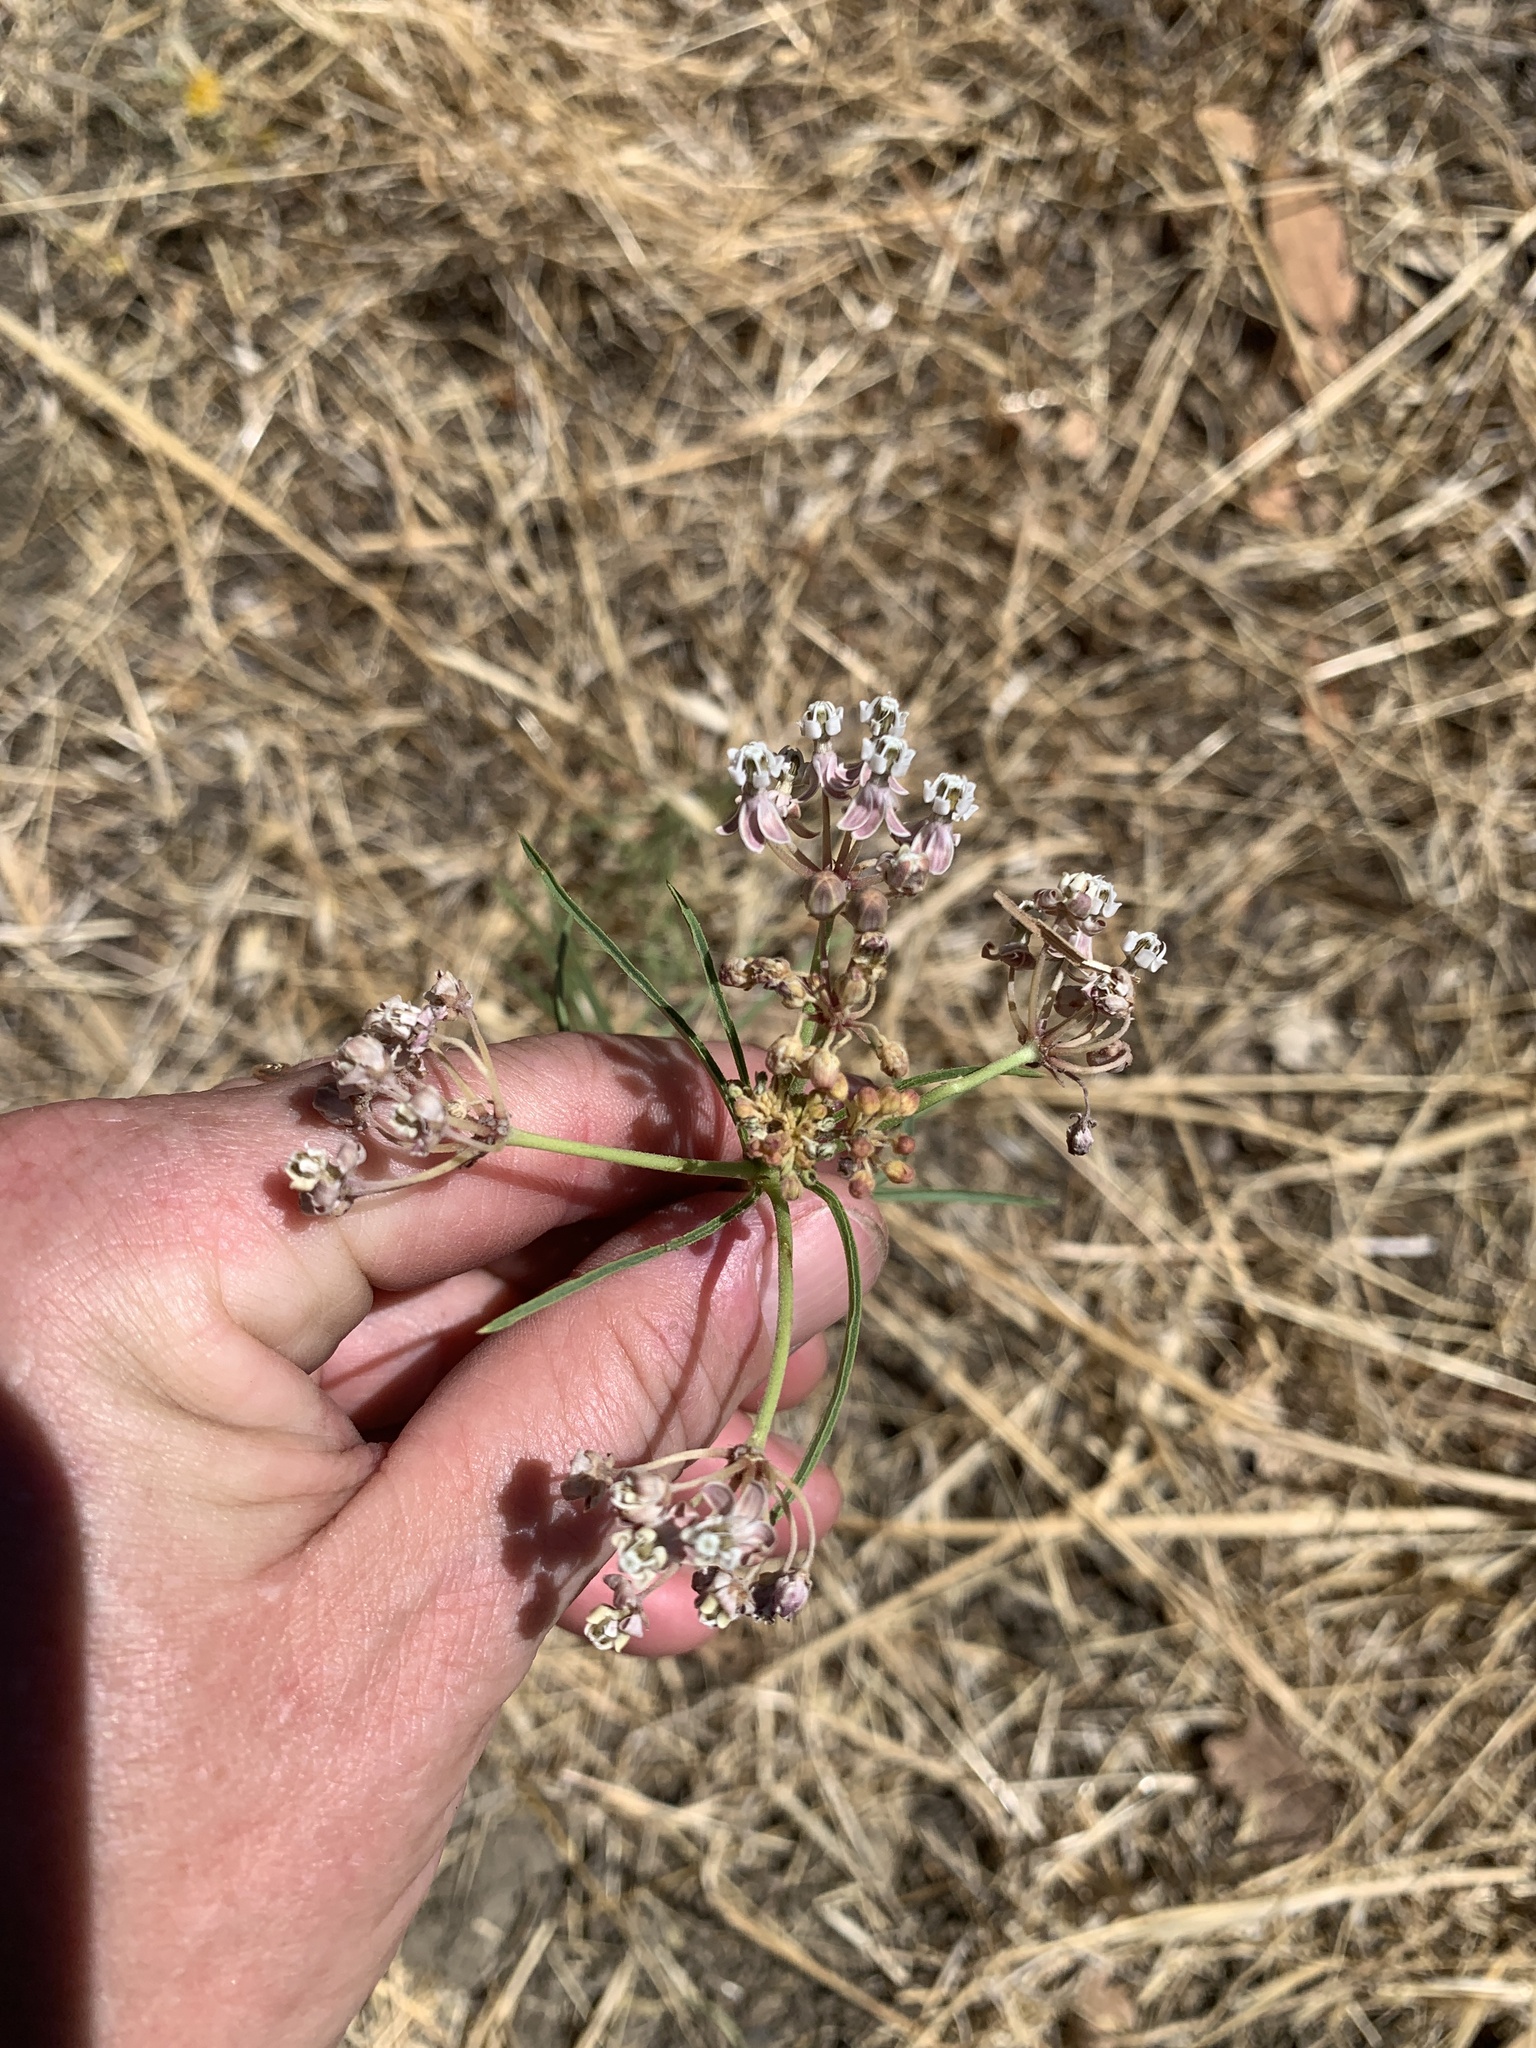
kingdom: Plantae
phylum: Tracheophyta
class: Magnoliopsida
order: Gentianales
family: Apocynaceae
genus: Asclepias
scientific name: Asclepias fascicularis
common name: Mexican milkweed
